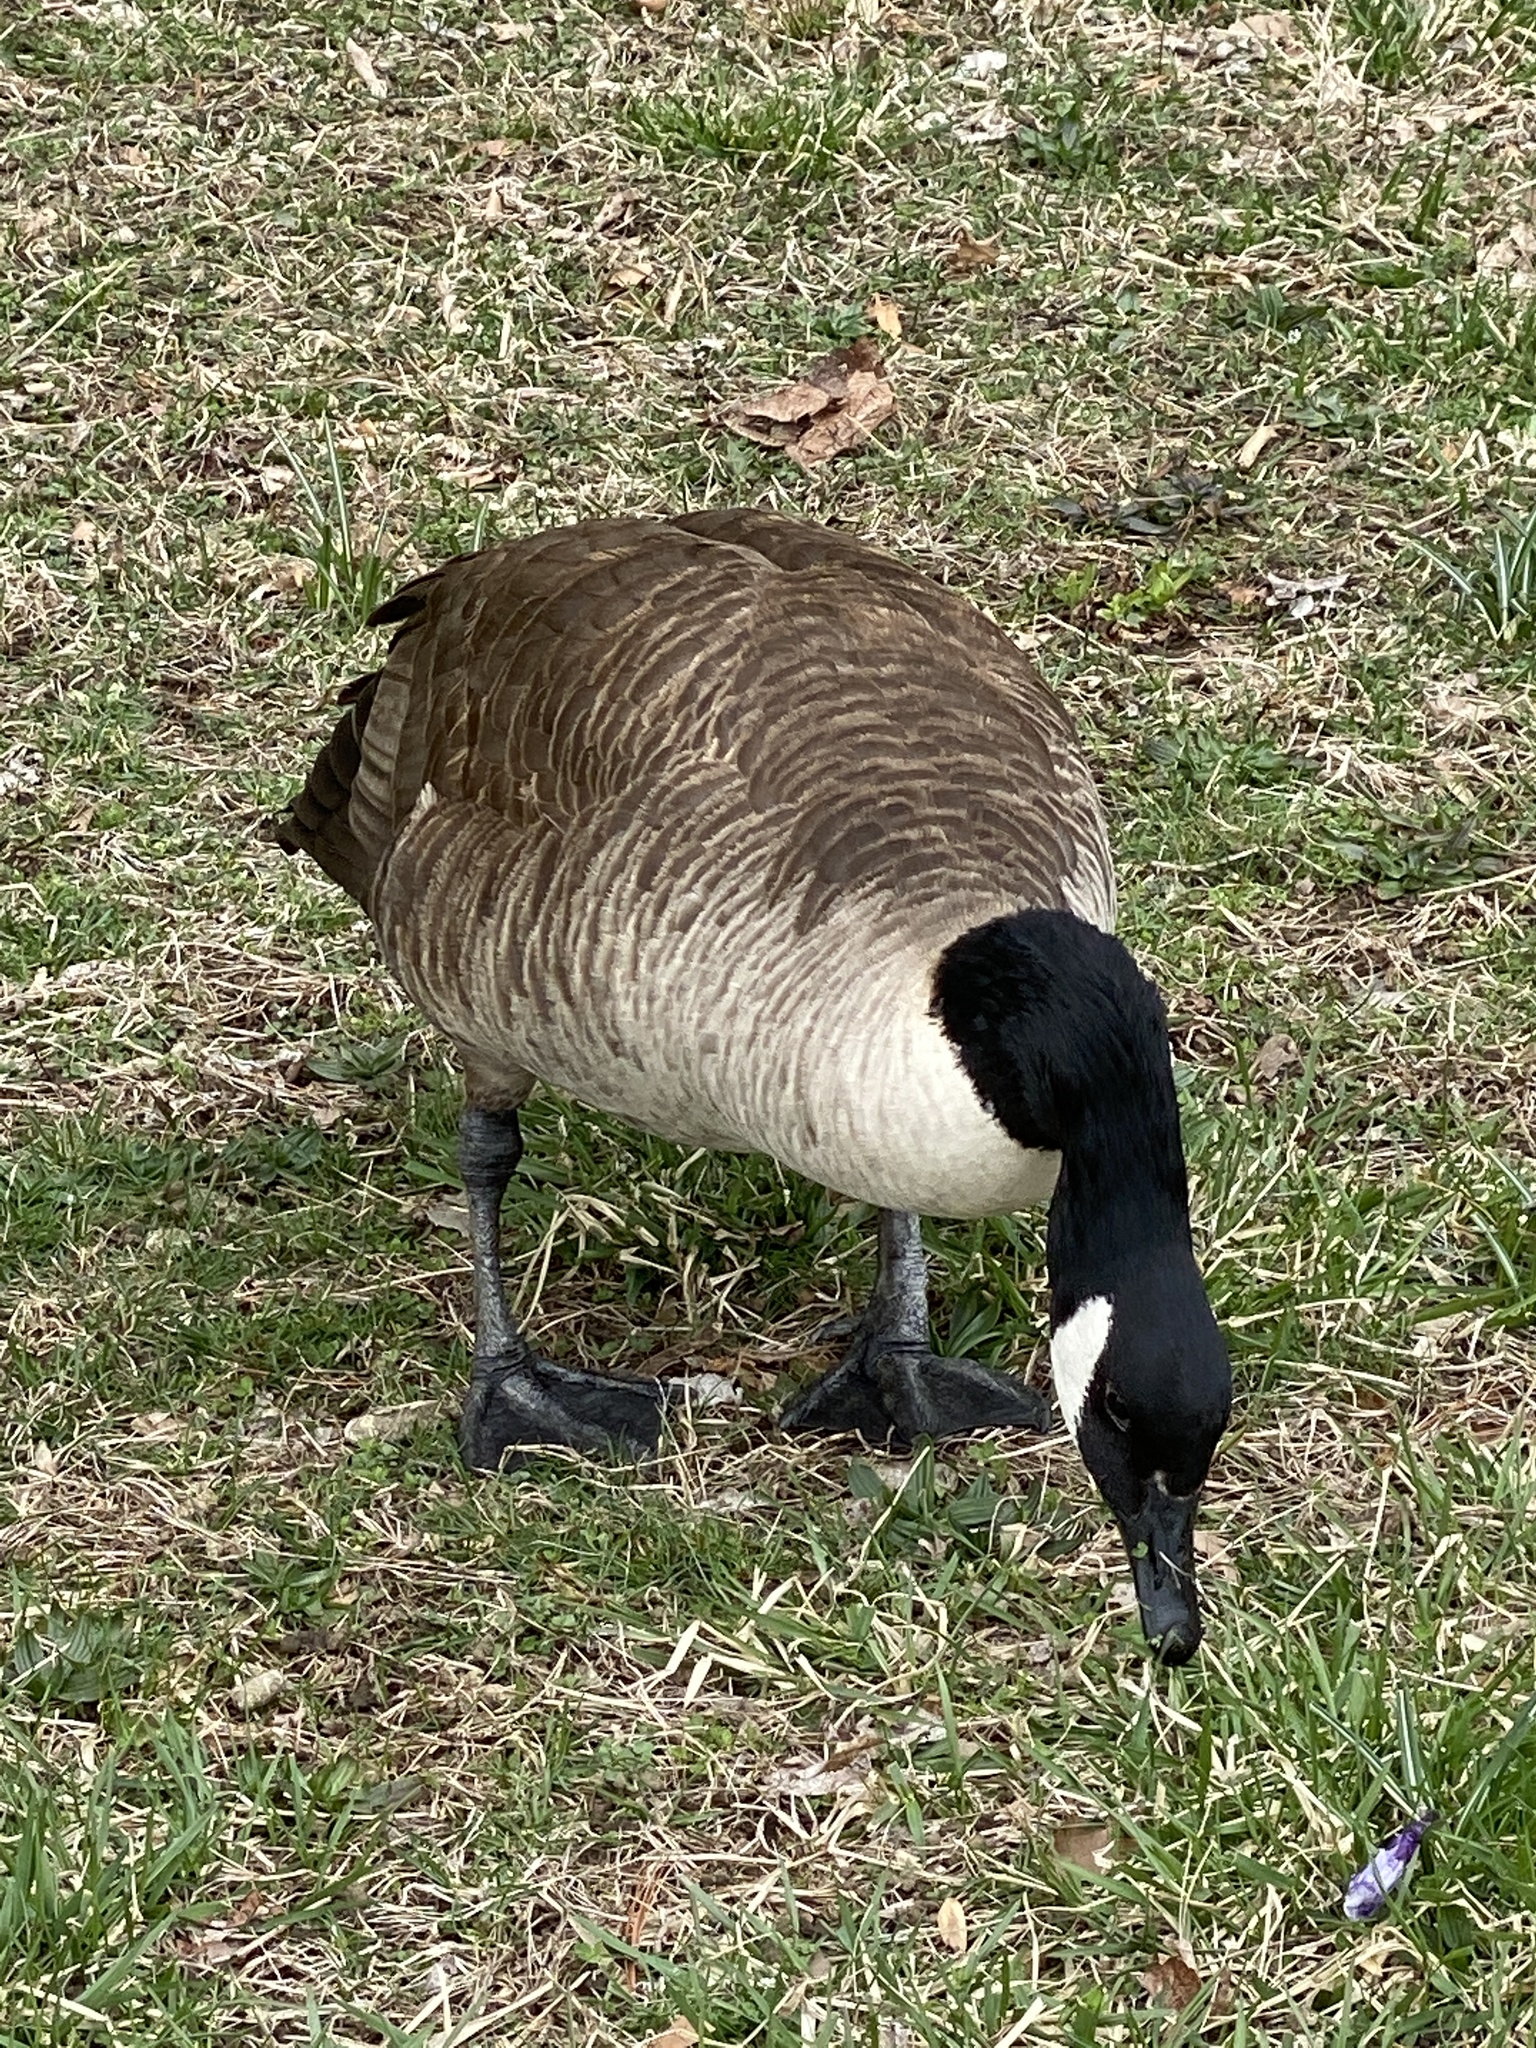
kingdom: Animalia
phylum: Chordata
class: Aves
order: Anseriformes
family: Anatidae
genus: Branta
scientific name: Branta canadensis
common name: Canada goose
